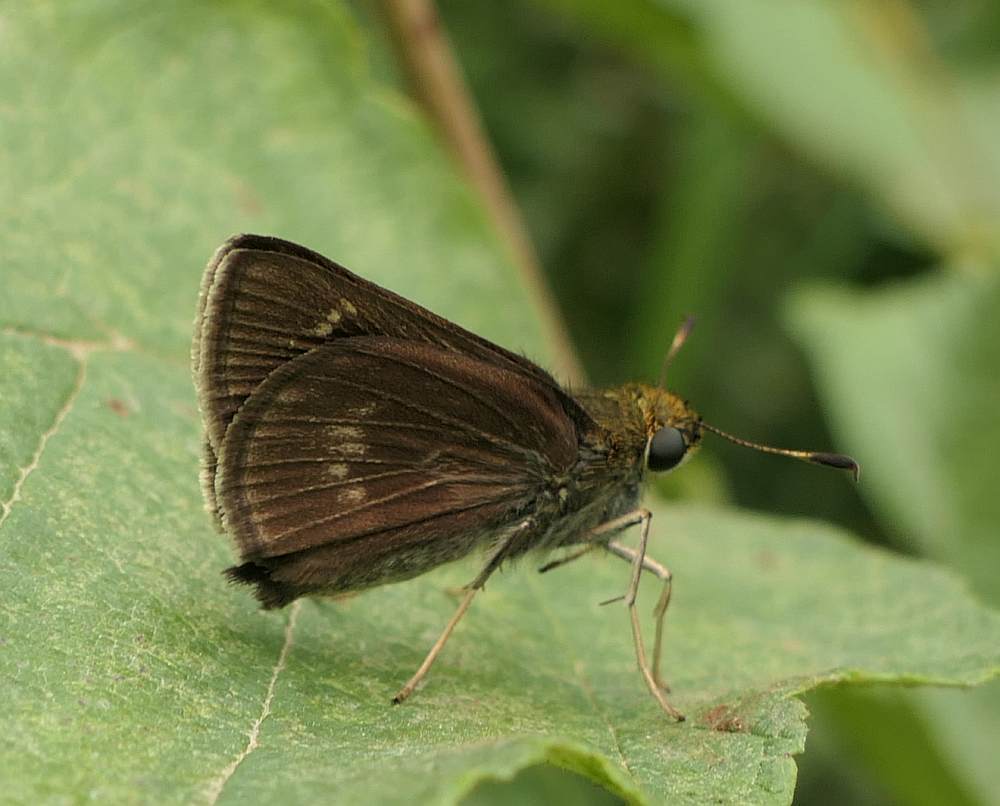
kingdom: Animalia
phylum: Arthropoda
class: Insecta
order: Lepidoptera
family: Hesperiidae
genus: Euphyes
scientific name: Euphyes vestris
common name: Dun skipper
